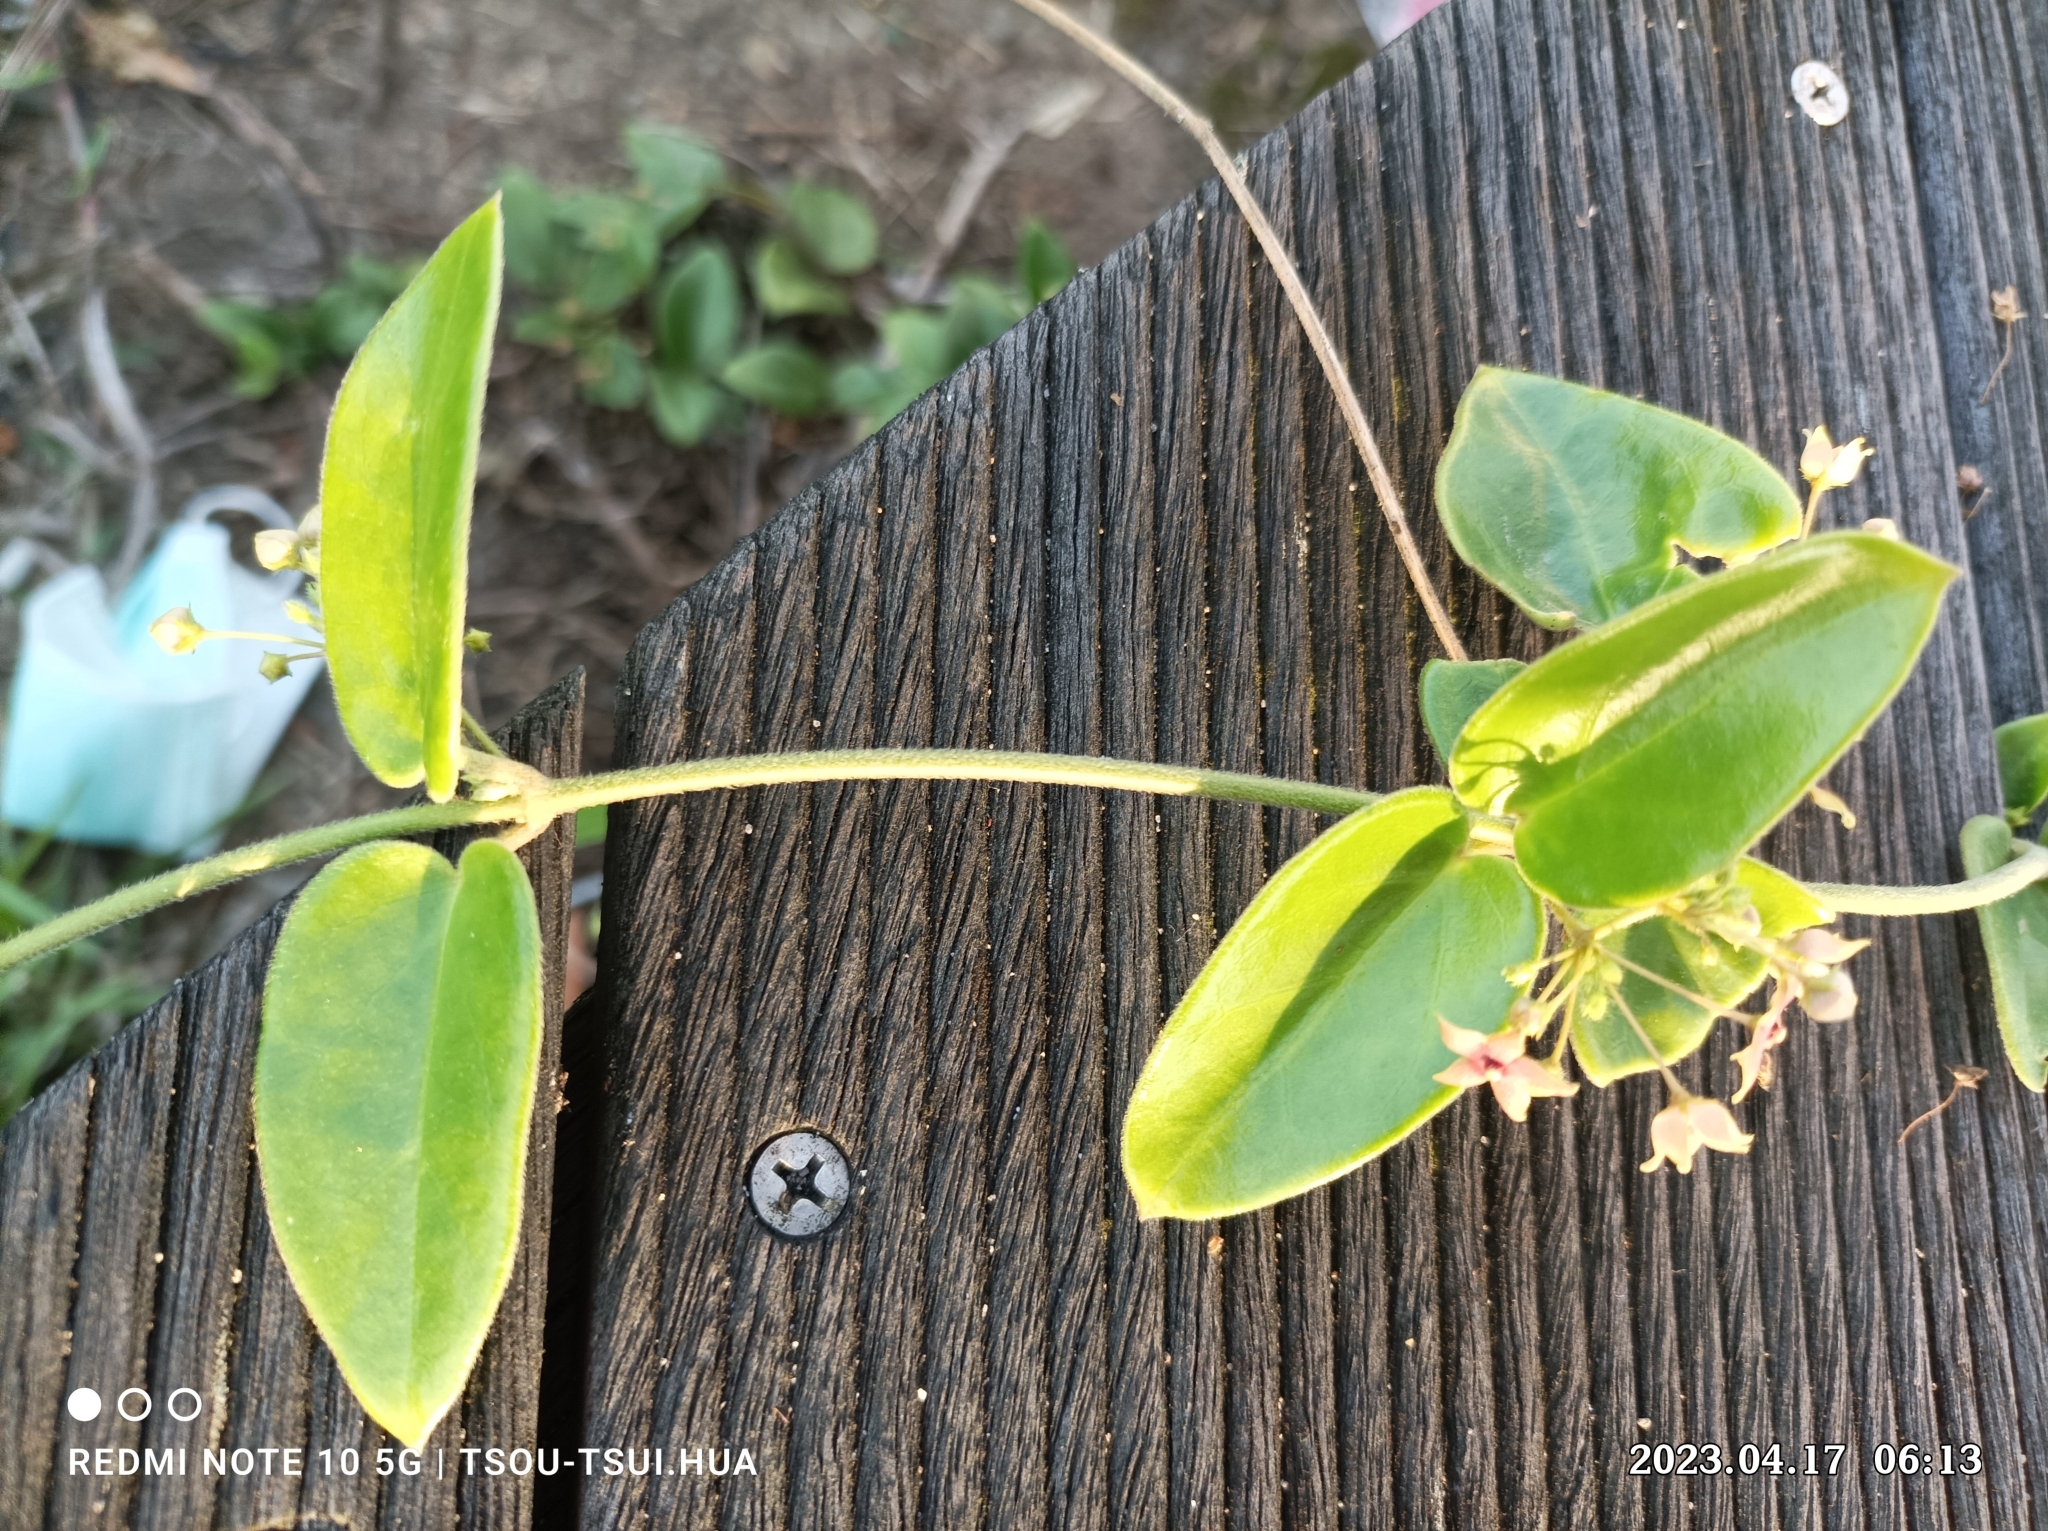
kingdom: Plantae
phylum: Tracheophyta
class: Magnoliopsida
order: Gentianales
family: Apocynaceae
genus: Vincetoxicum
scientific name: Vincetoxicum hirsutum
